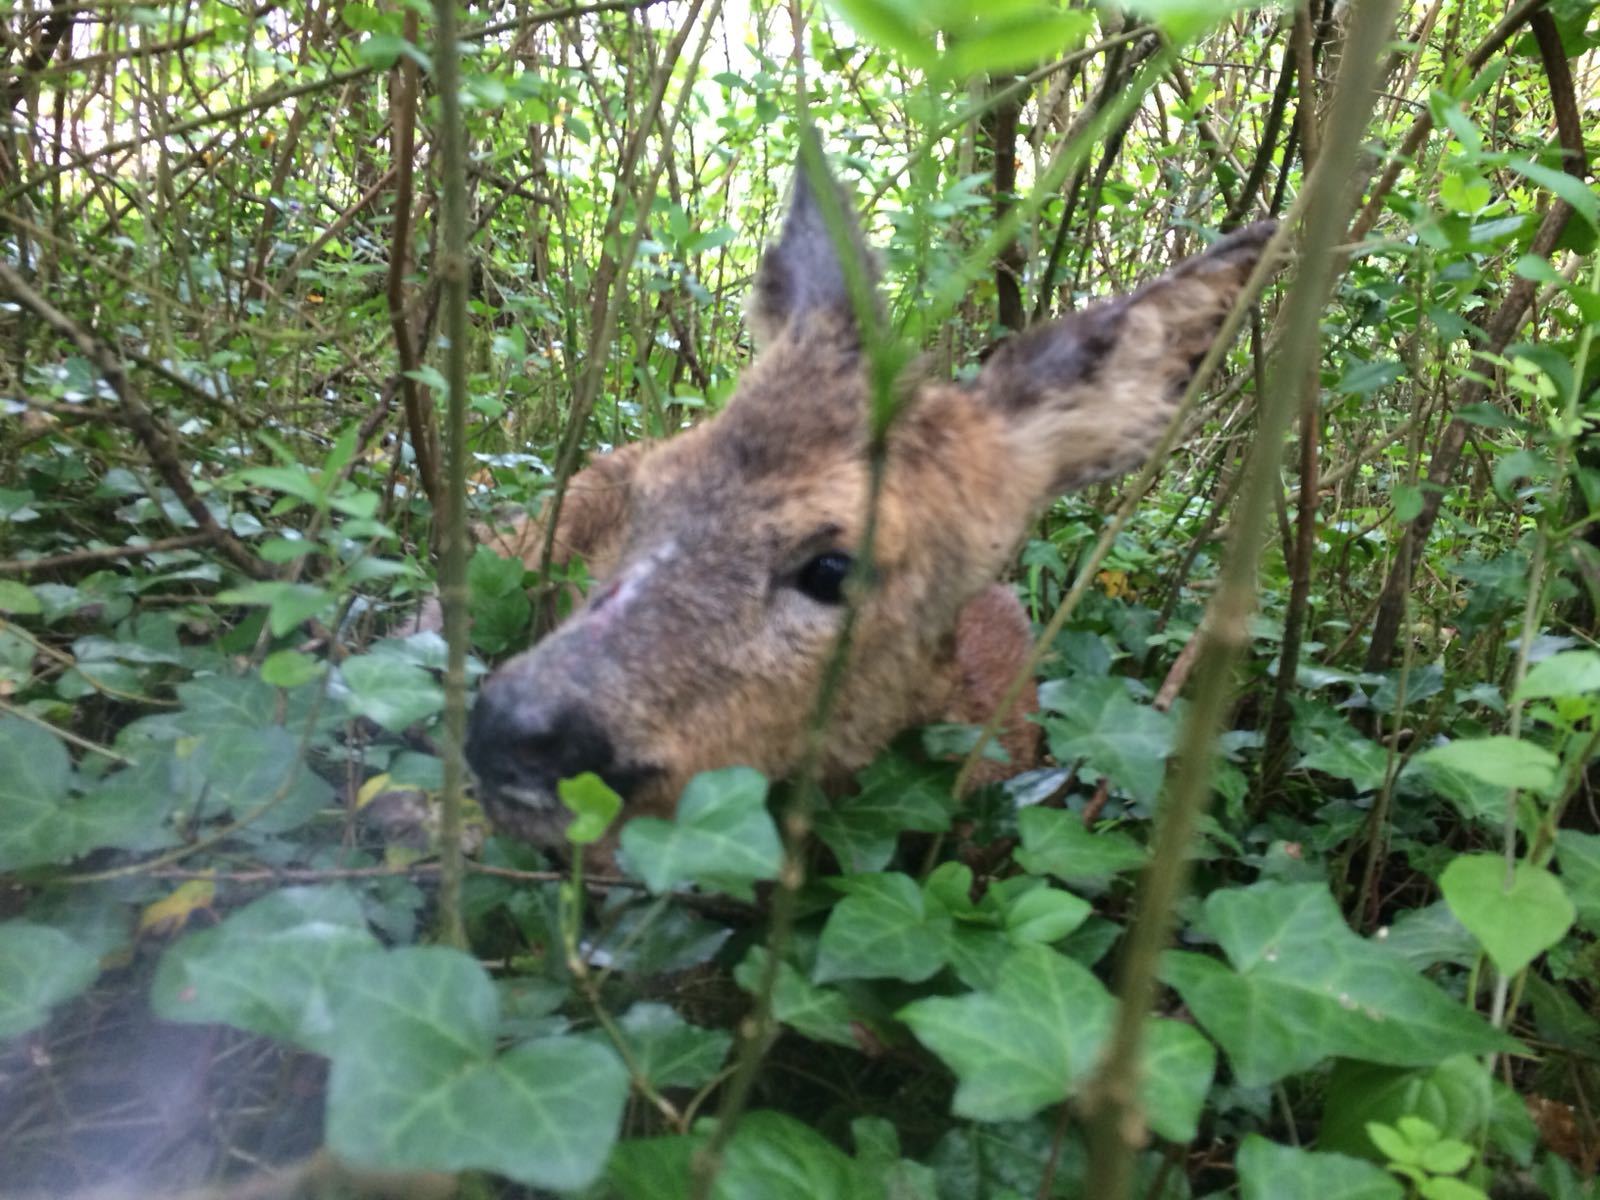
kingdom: Animalia
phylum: Chordata
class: Mammalia
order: Artiodactyla
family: Cervidae
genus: Capreolus
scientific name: Capreolus capreolus
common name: Western roe deer
